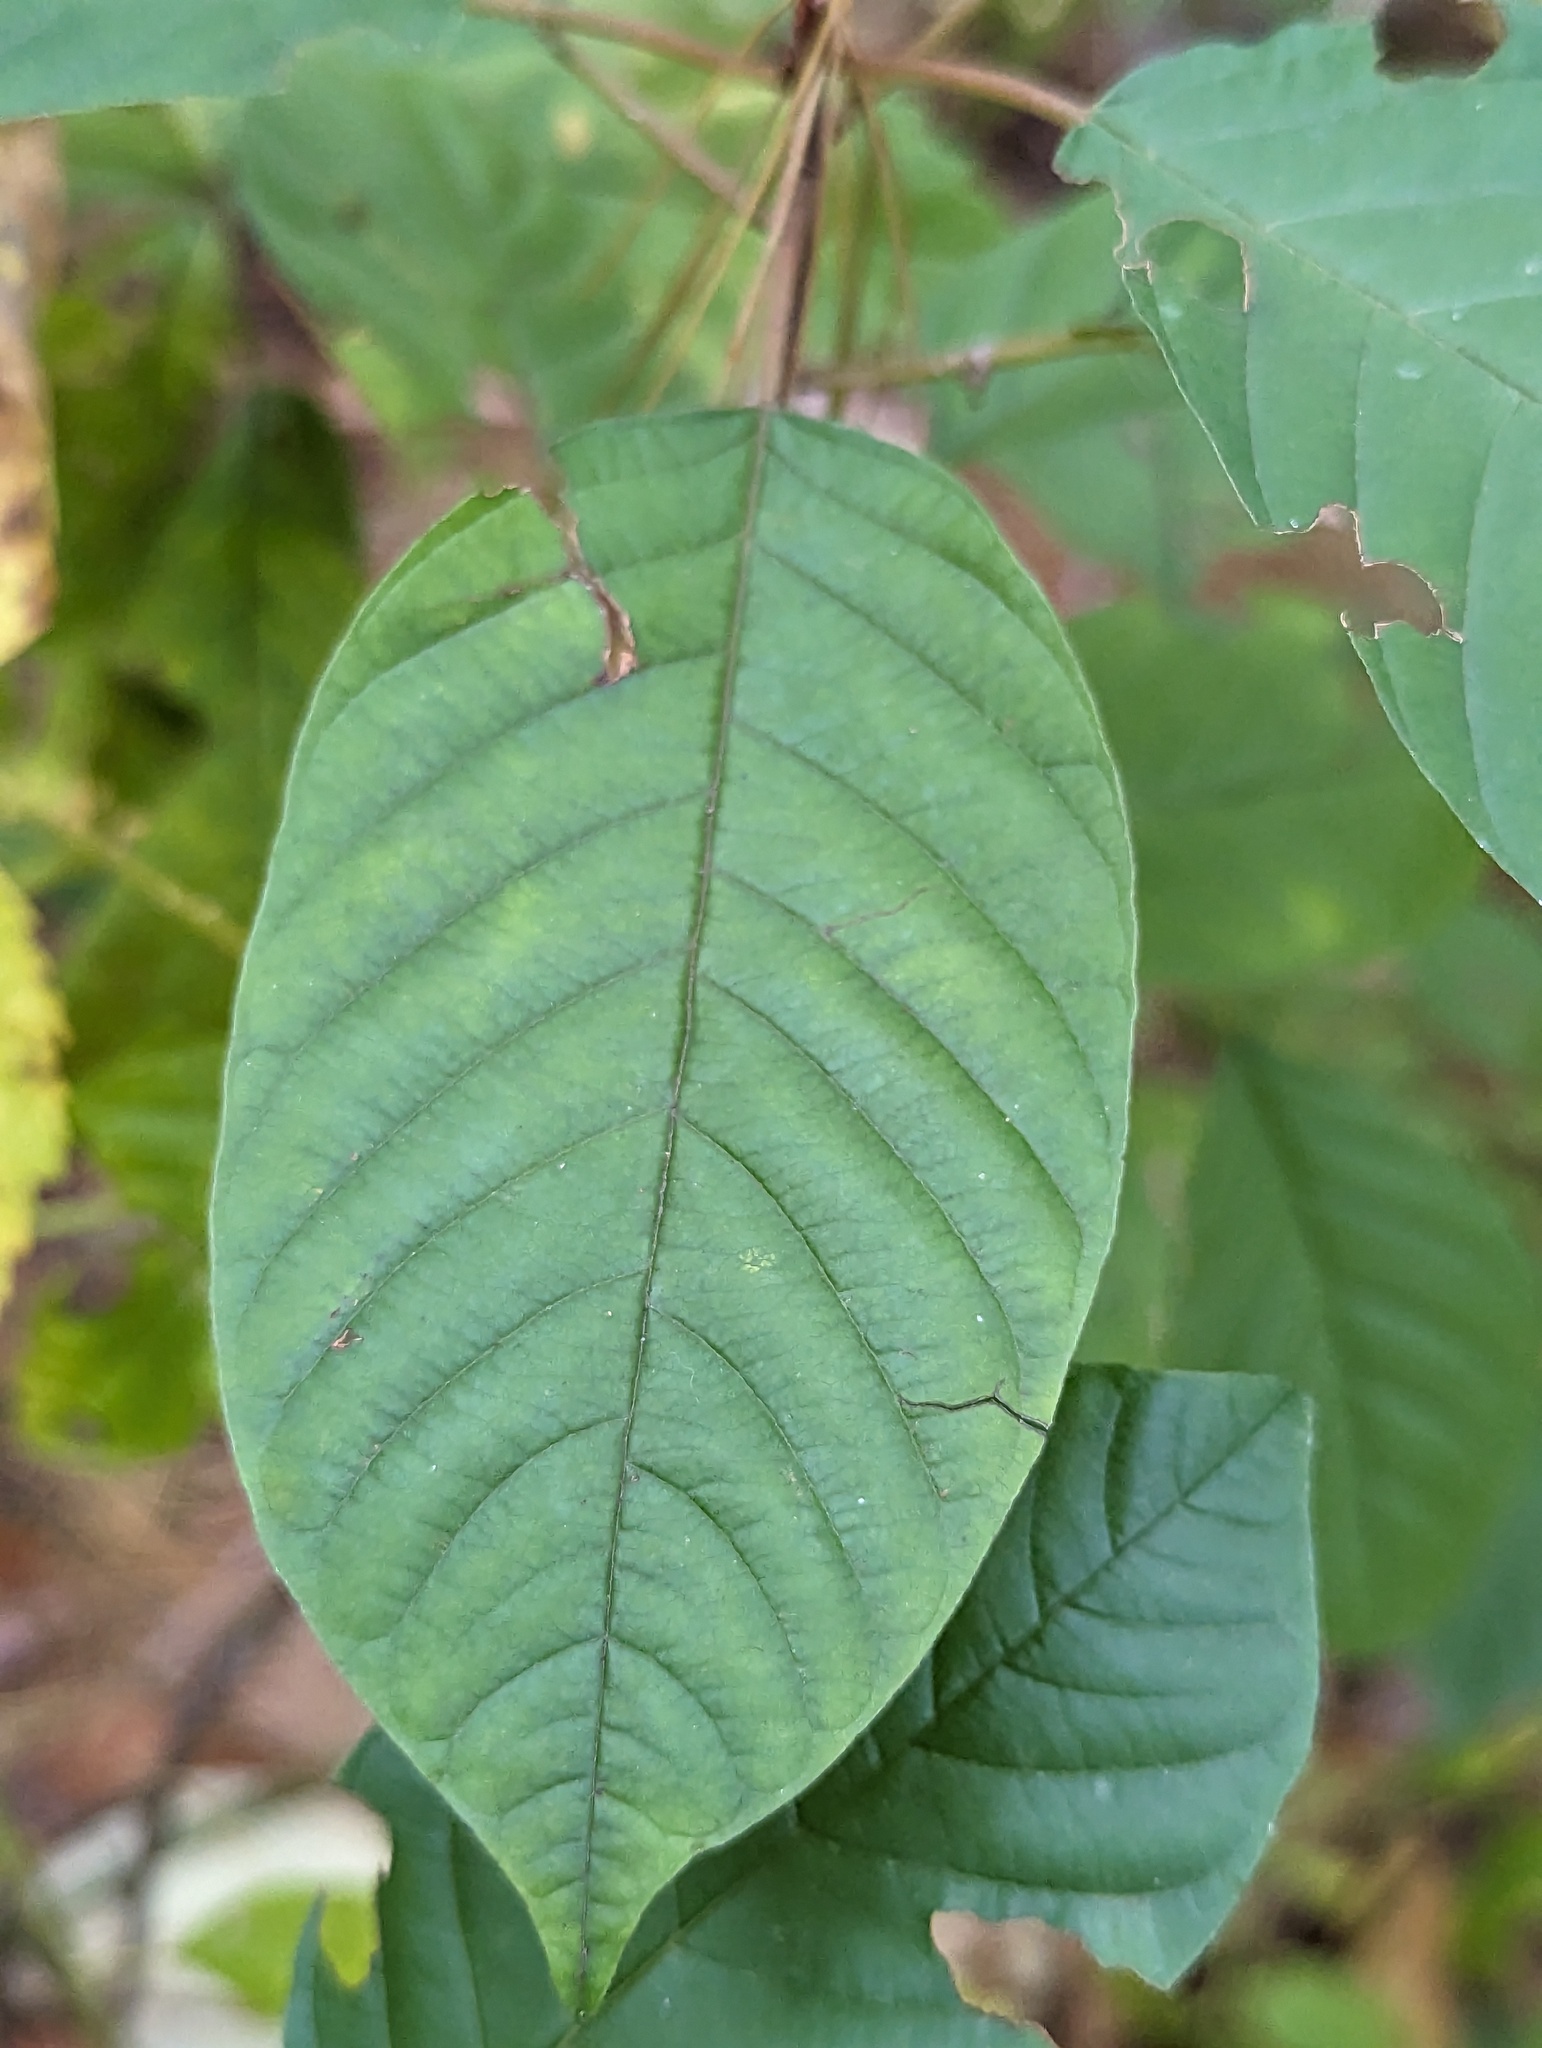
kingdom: Plantae
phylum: Tracheophyta
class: Magnoliopsida
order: Rosales
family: Rhamnaceae
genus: Frangula
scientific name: Frangula alnus
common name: Alder buckthorn
